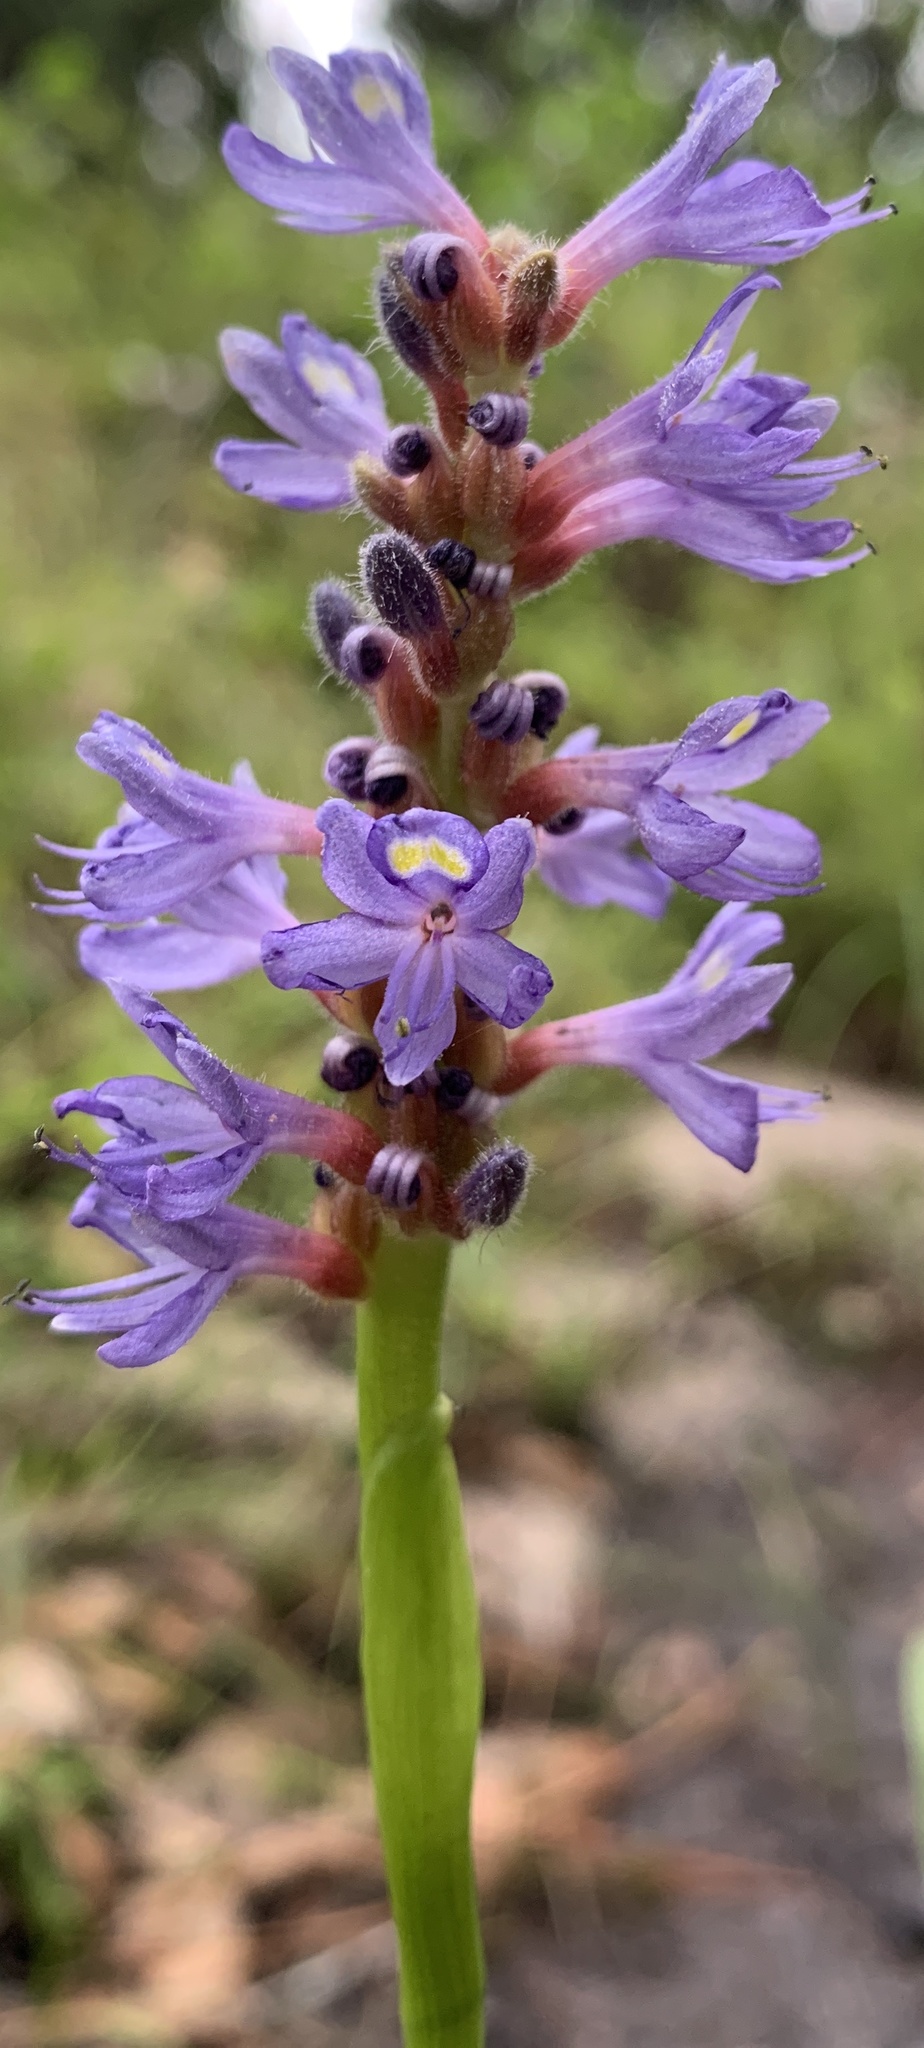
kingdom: Plantae
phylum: Tracheophyta
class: Liliopsida
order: Commelinales
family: Pontederiaceae
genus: Pontederia
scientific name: Pontederia cordata
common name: Pickerelweed
